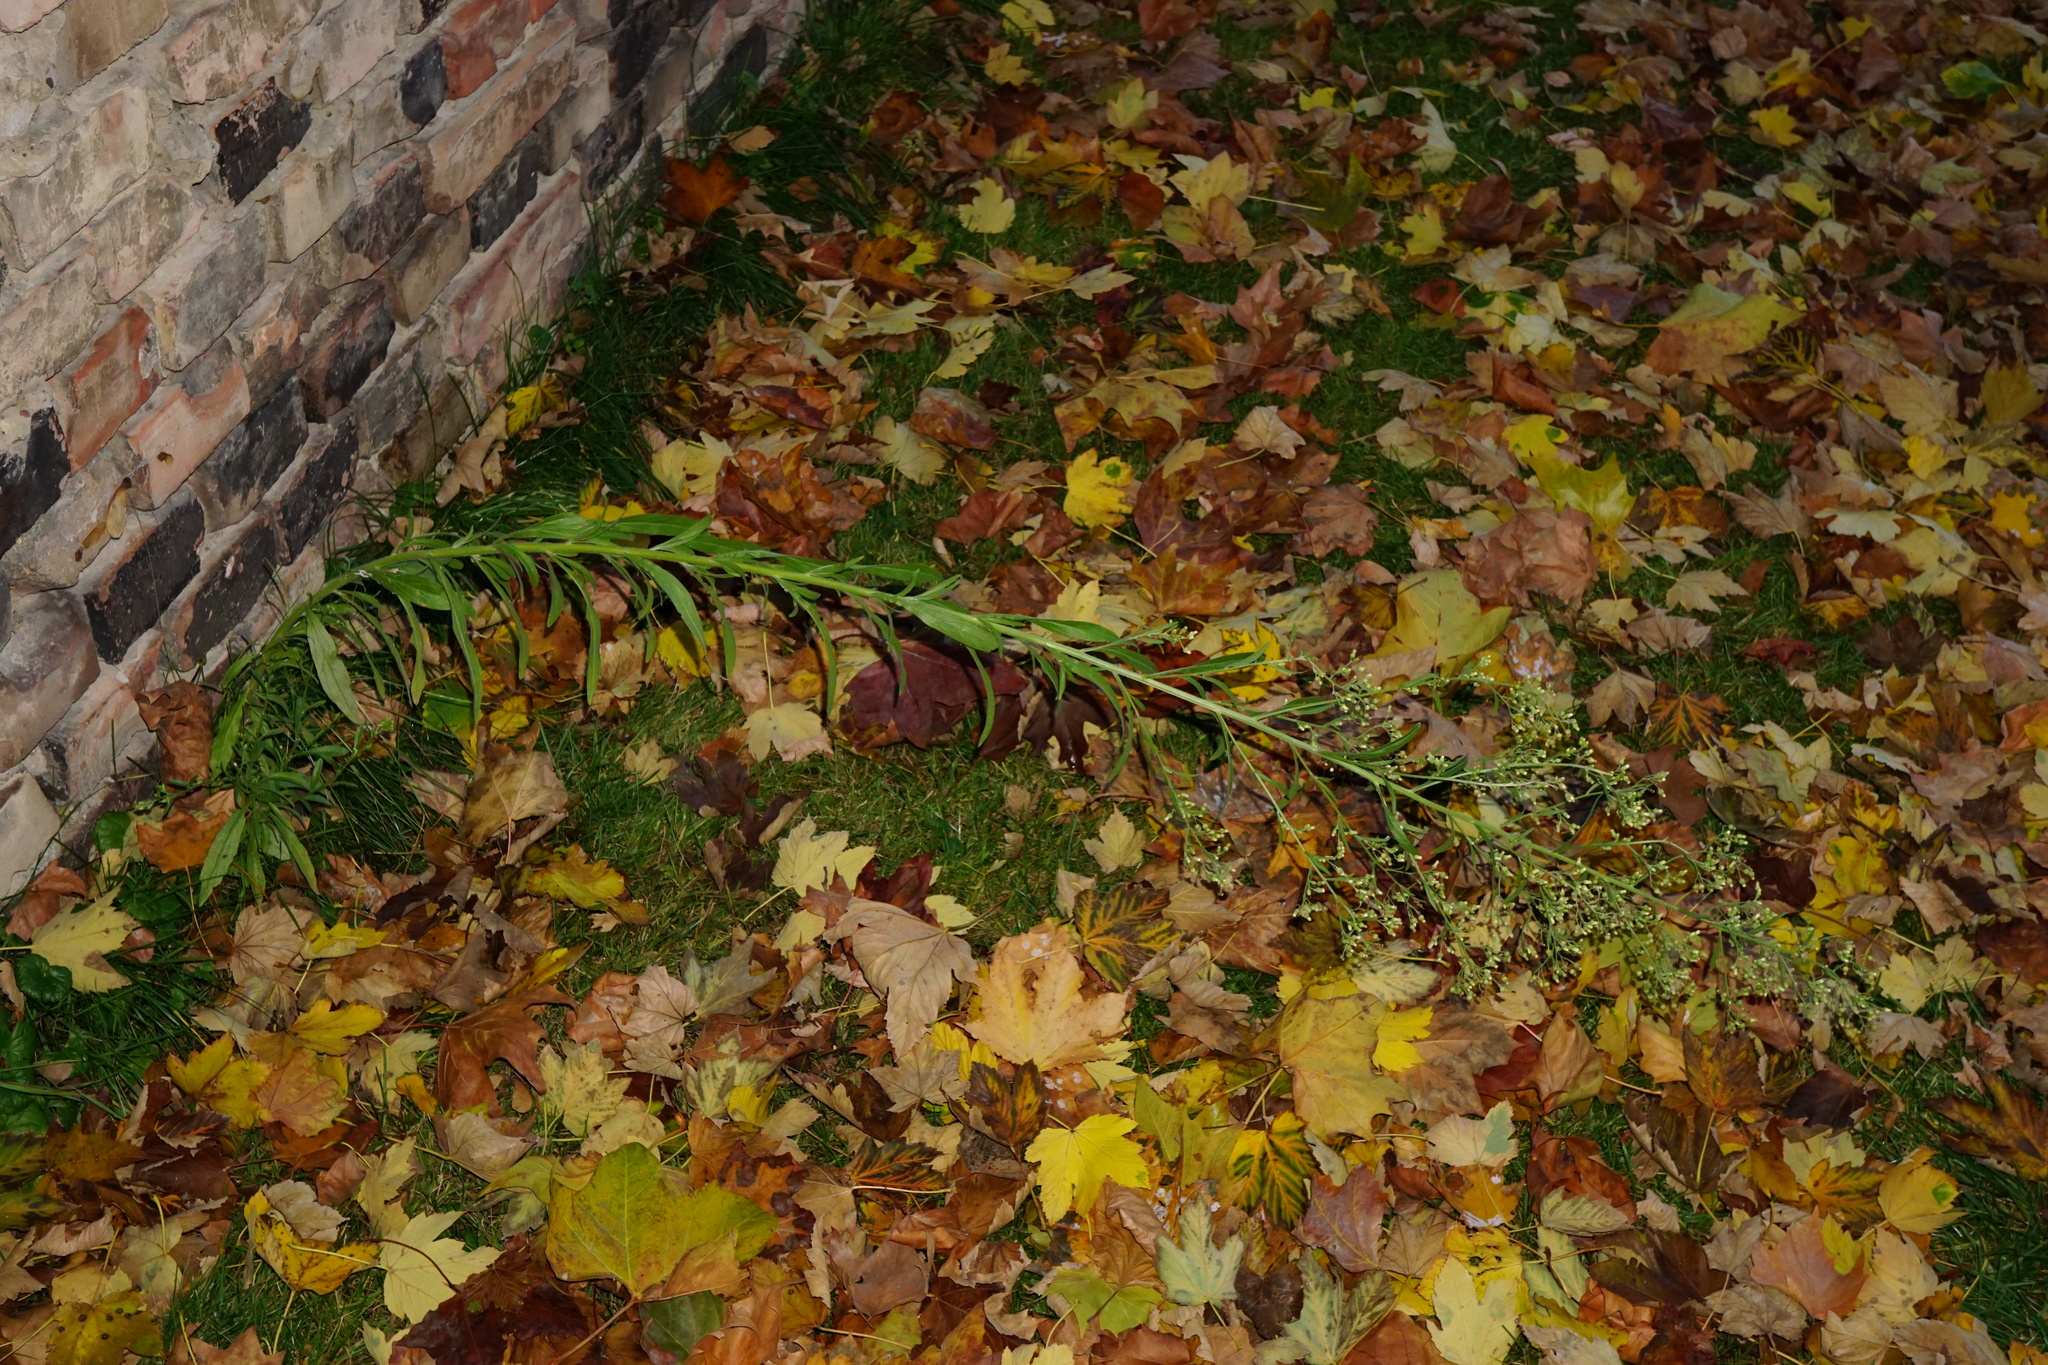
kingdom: Plantae
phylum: Tracheophyta
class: Magnoliopsida
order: Asterales
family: Asteraceae
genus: Erigeron
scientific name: Erigeron sumatrensis
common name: Daisy
